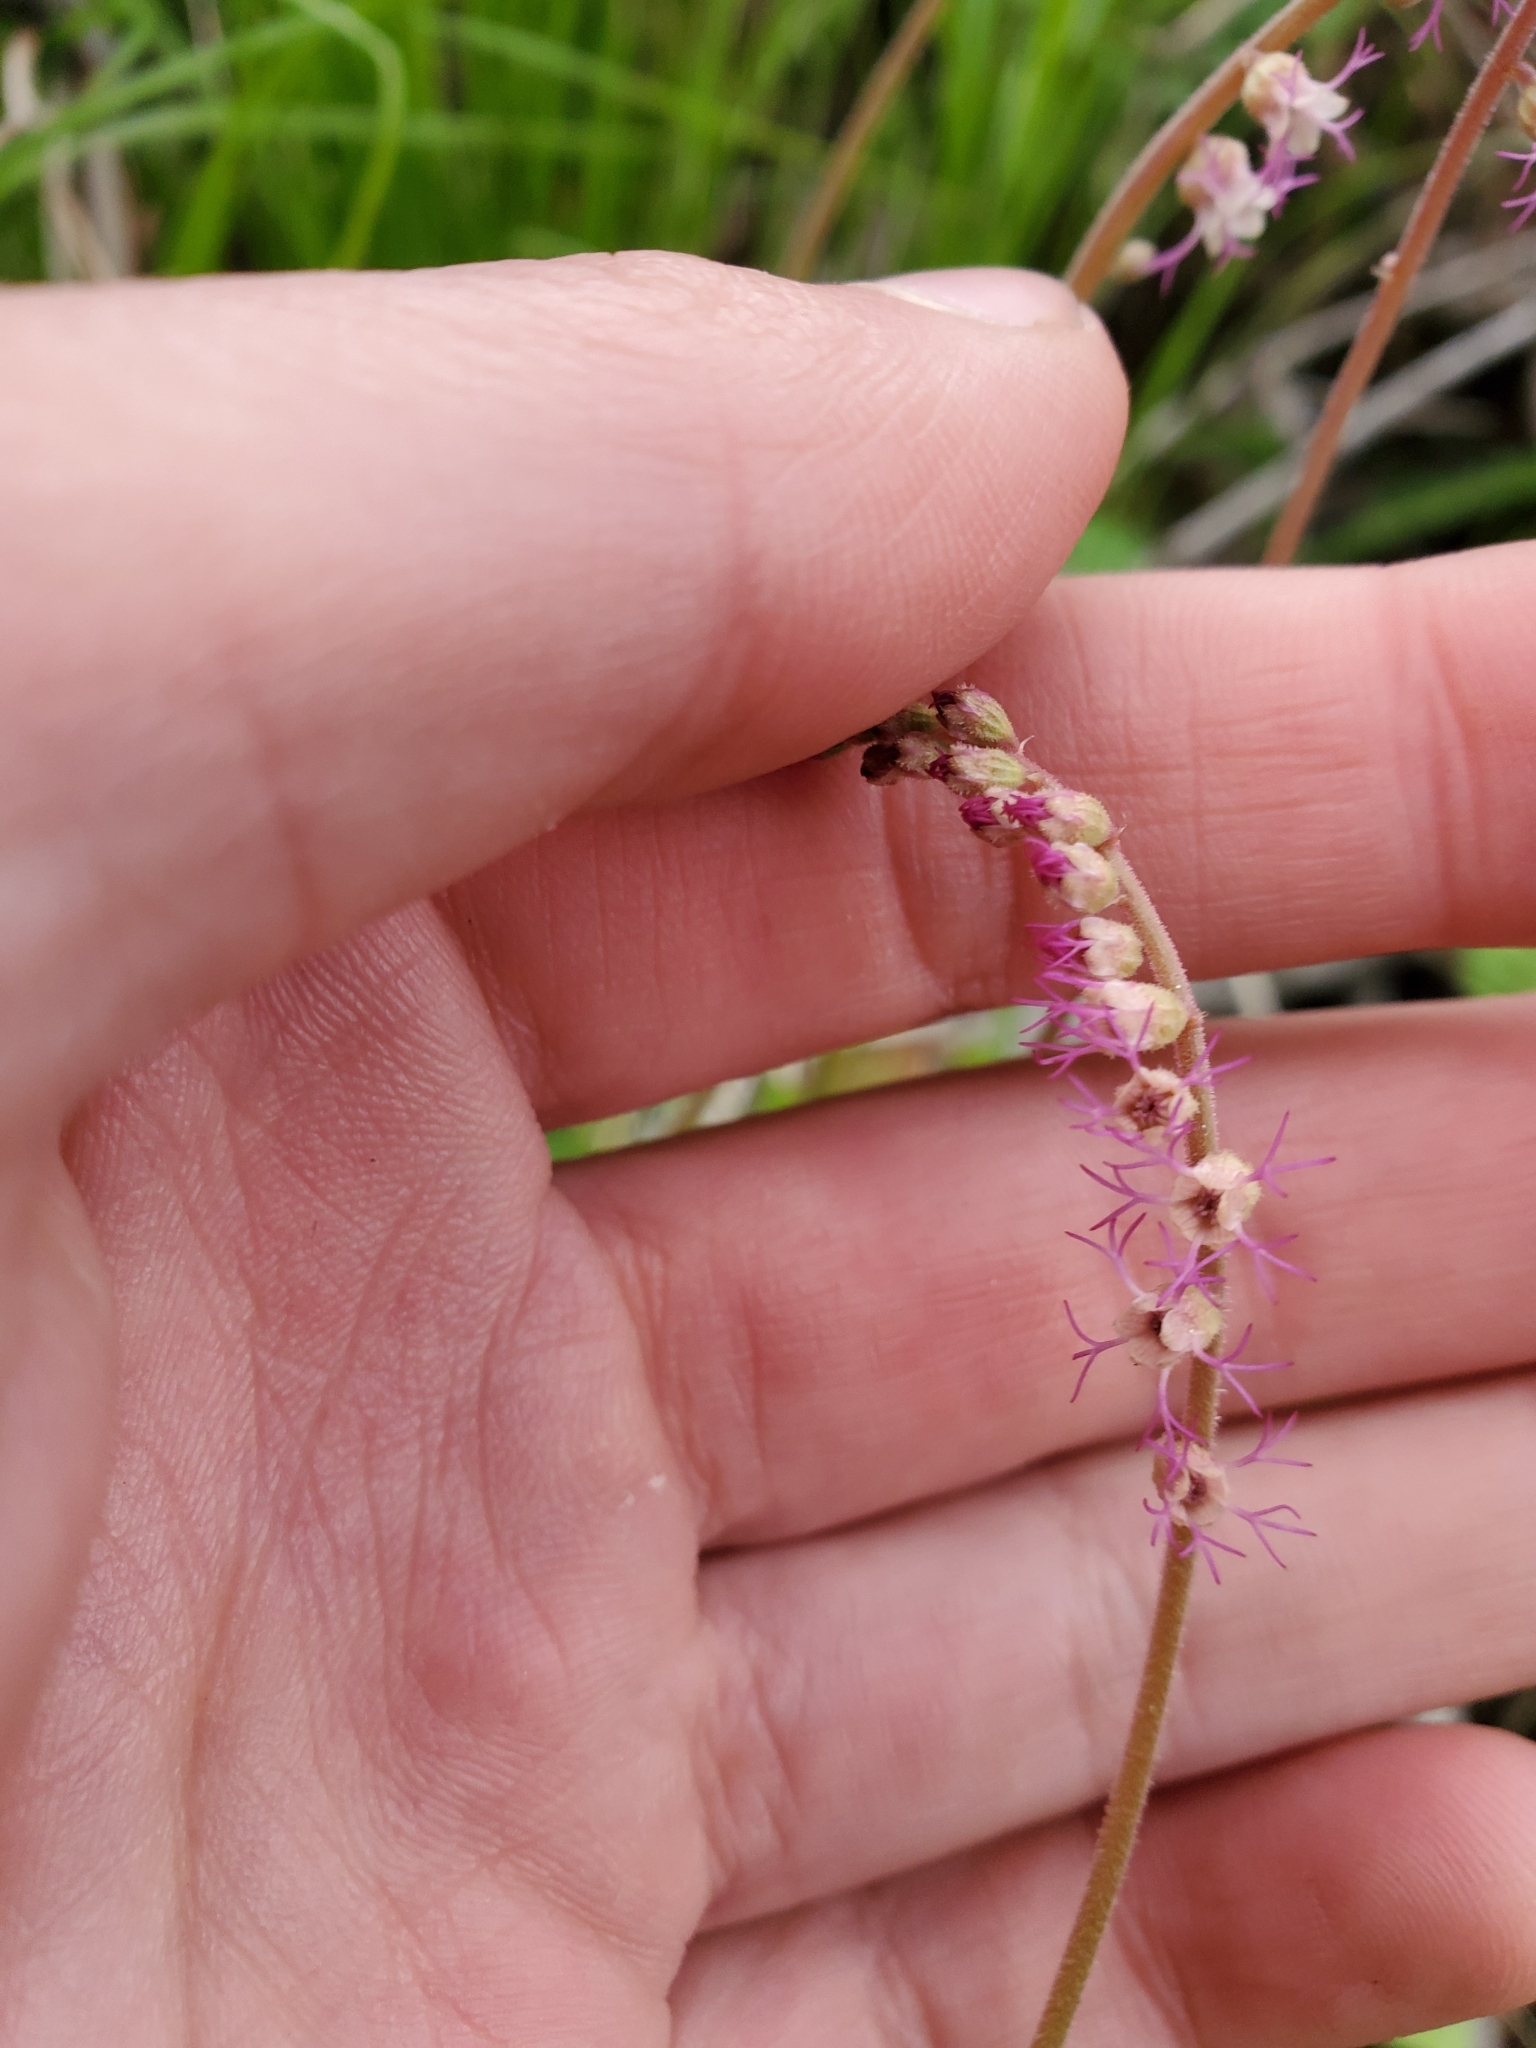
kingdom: Plantae
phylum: Tracheophyta
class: Magnoliopsida
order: Saxifragales
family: Saxifragaceae
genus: Ozomelis
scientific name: Ozomelis stauropetala
